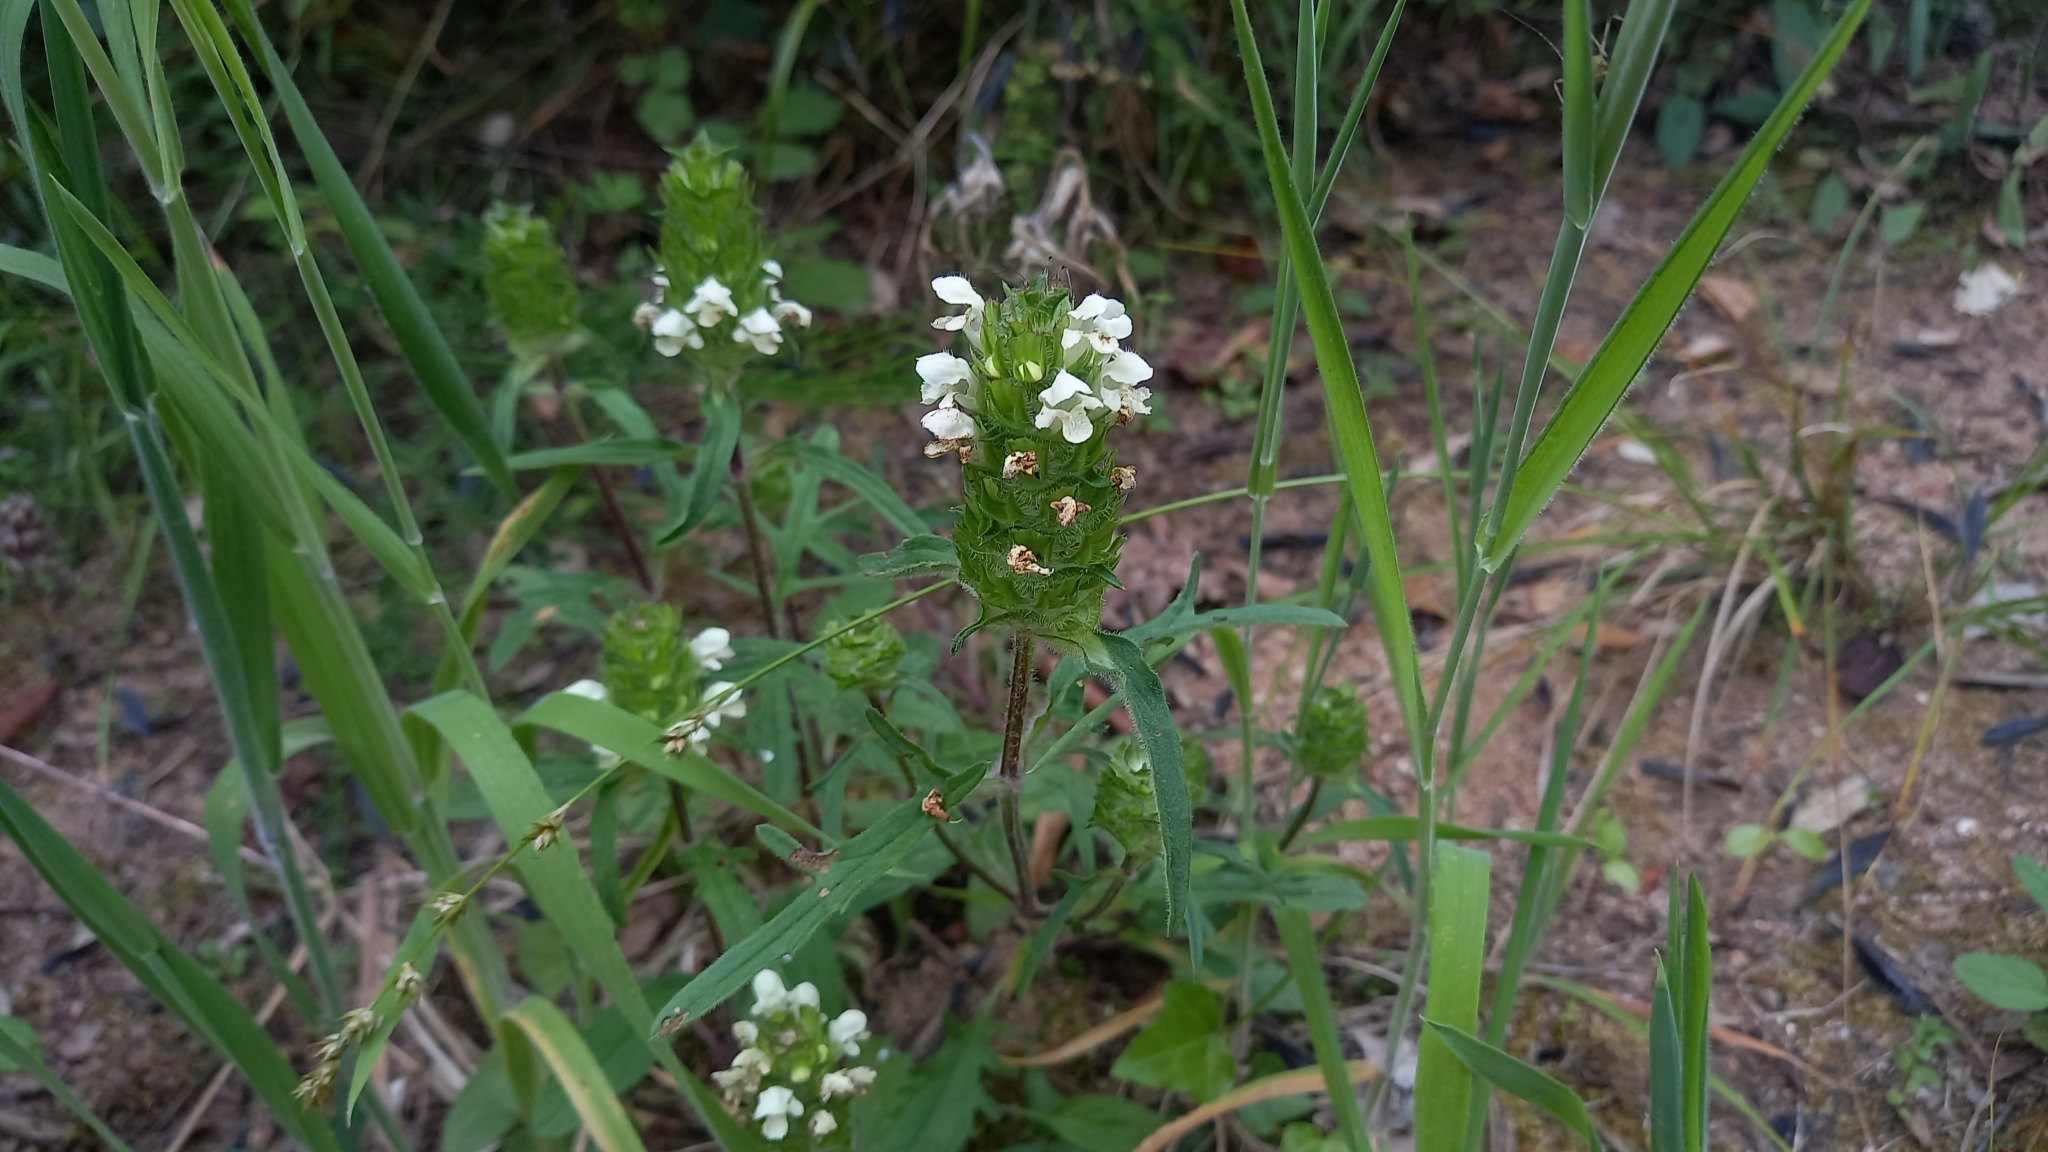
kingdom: Plantae
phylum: Tracheophyta
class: Magnoliopsida
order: Lamiales
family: Lamiaceae
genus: Prunella
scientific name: Prunella laciniata
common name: Cut-leaved selfheal
